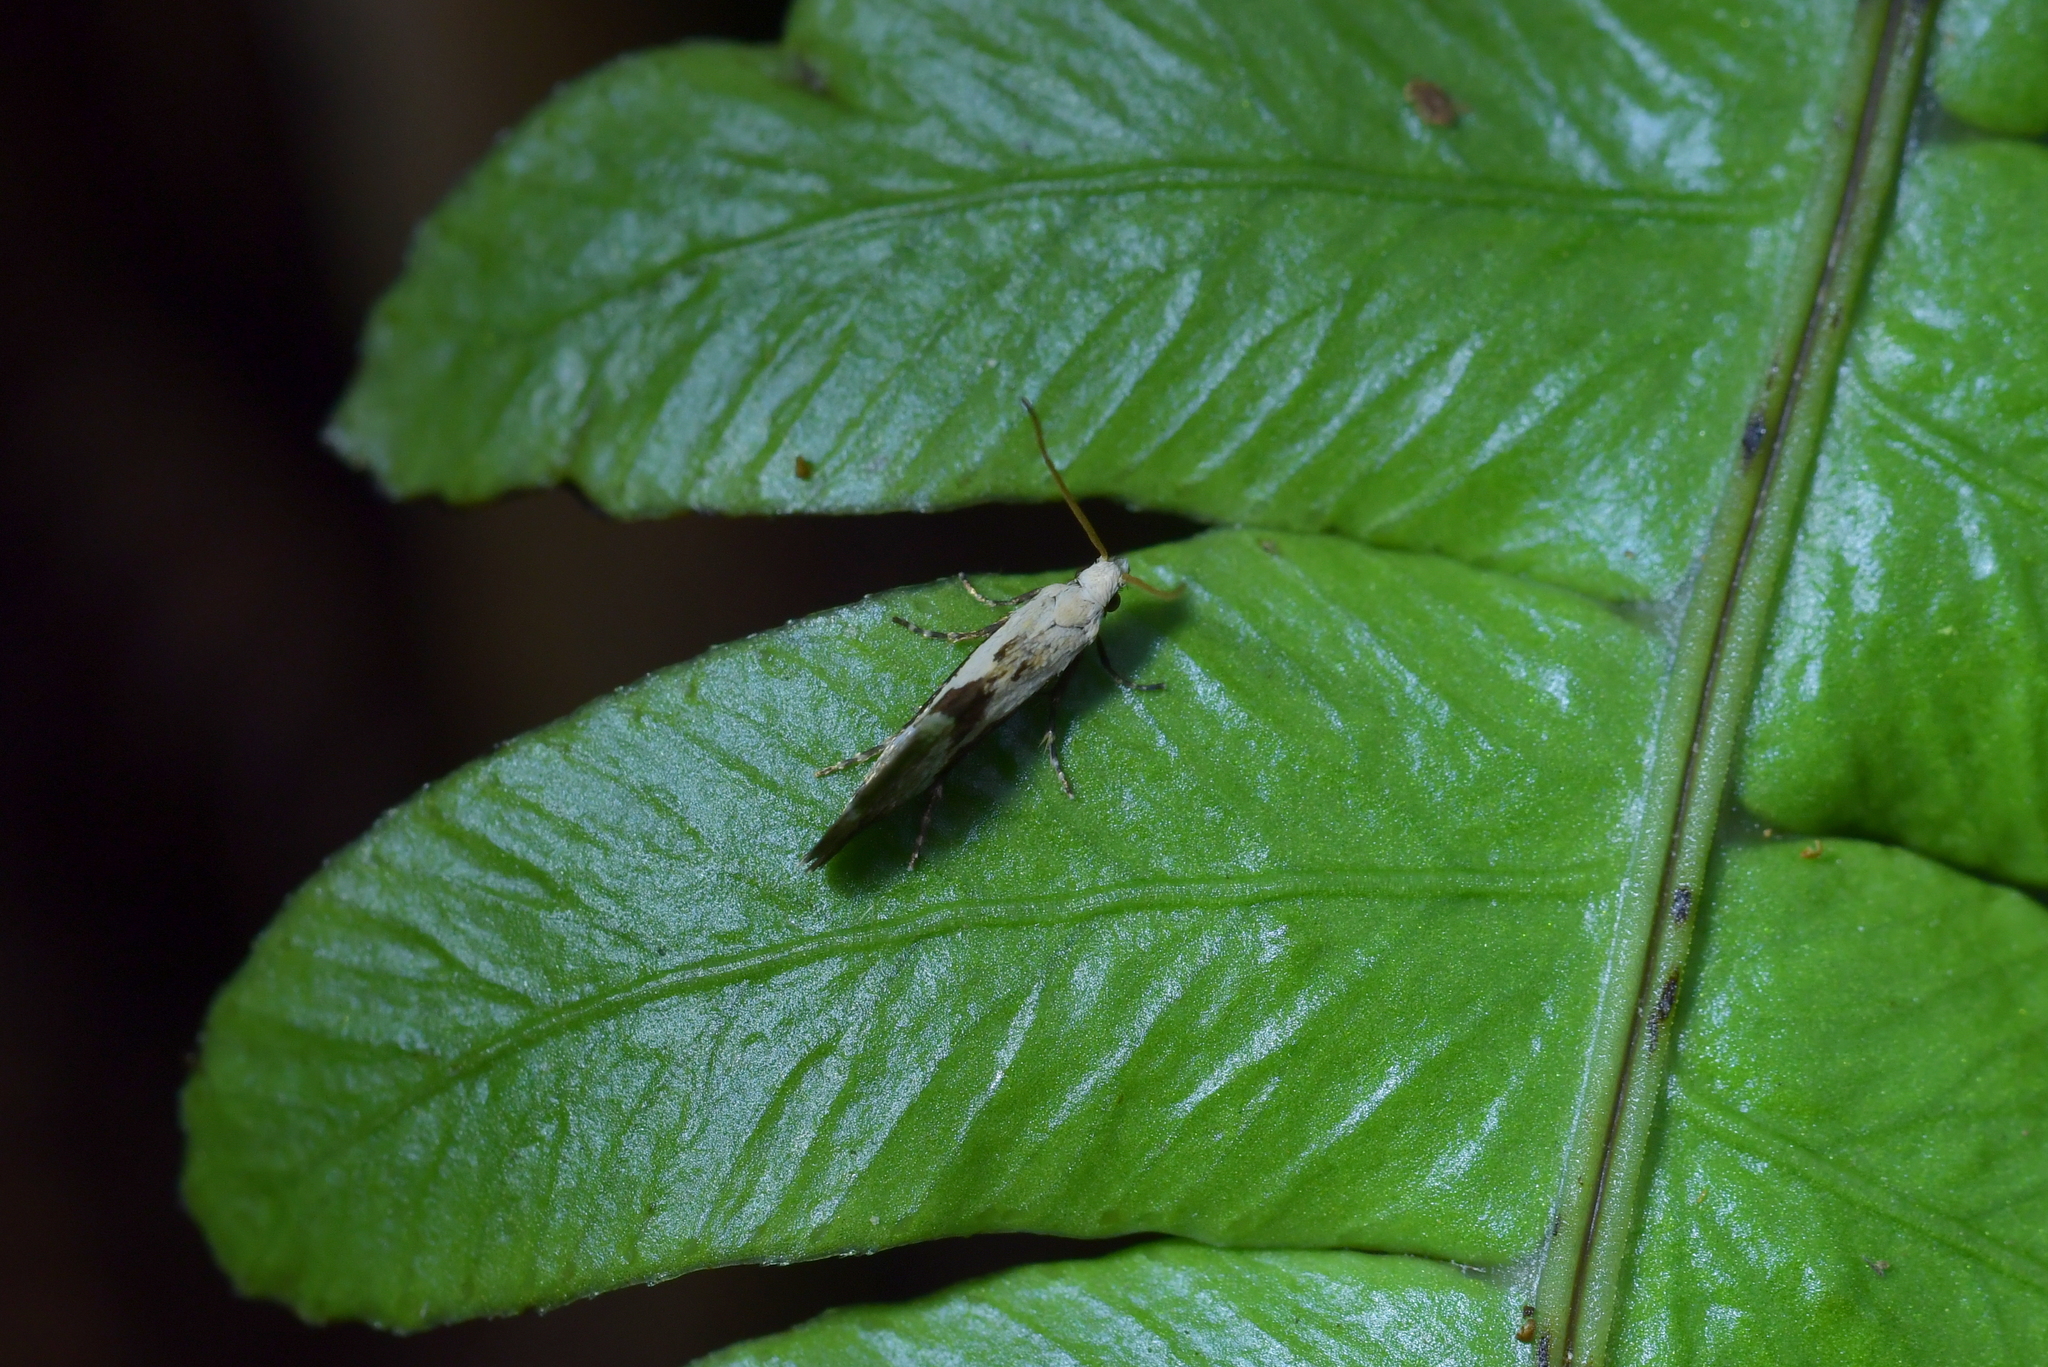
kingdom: Animalia
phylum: Arthropoda
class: Insecta
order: Lepidoptera
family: Mnesarchaeidae
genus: Mnesarchella
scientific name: Mnesarchella fusilella
